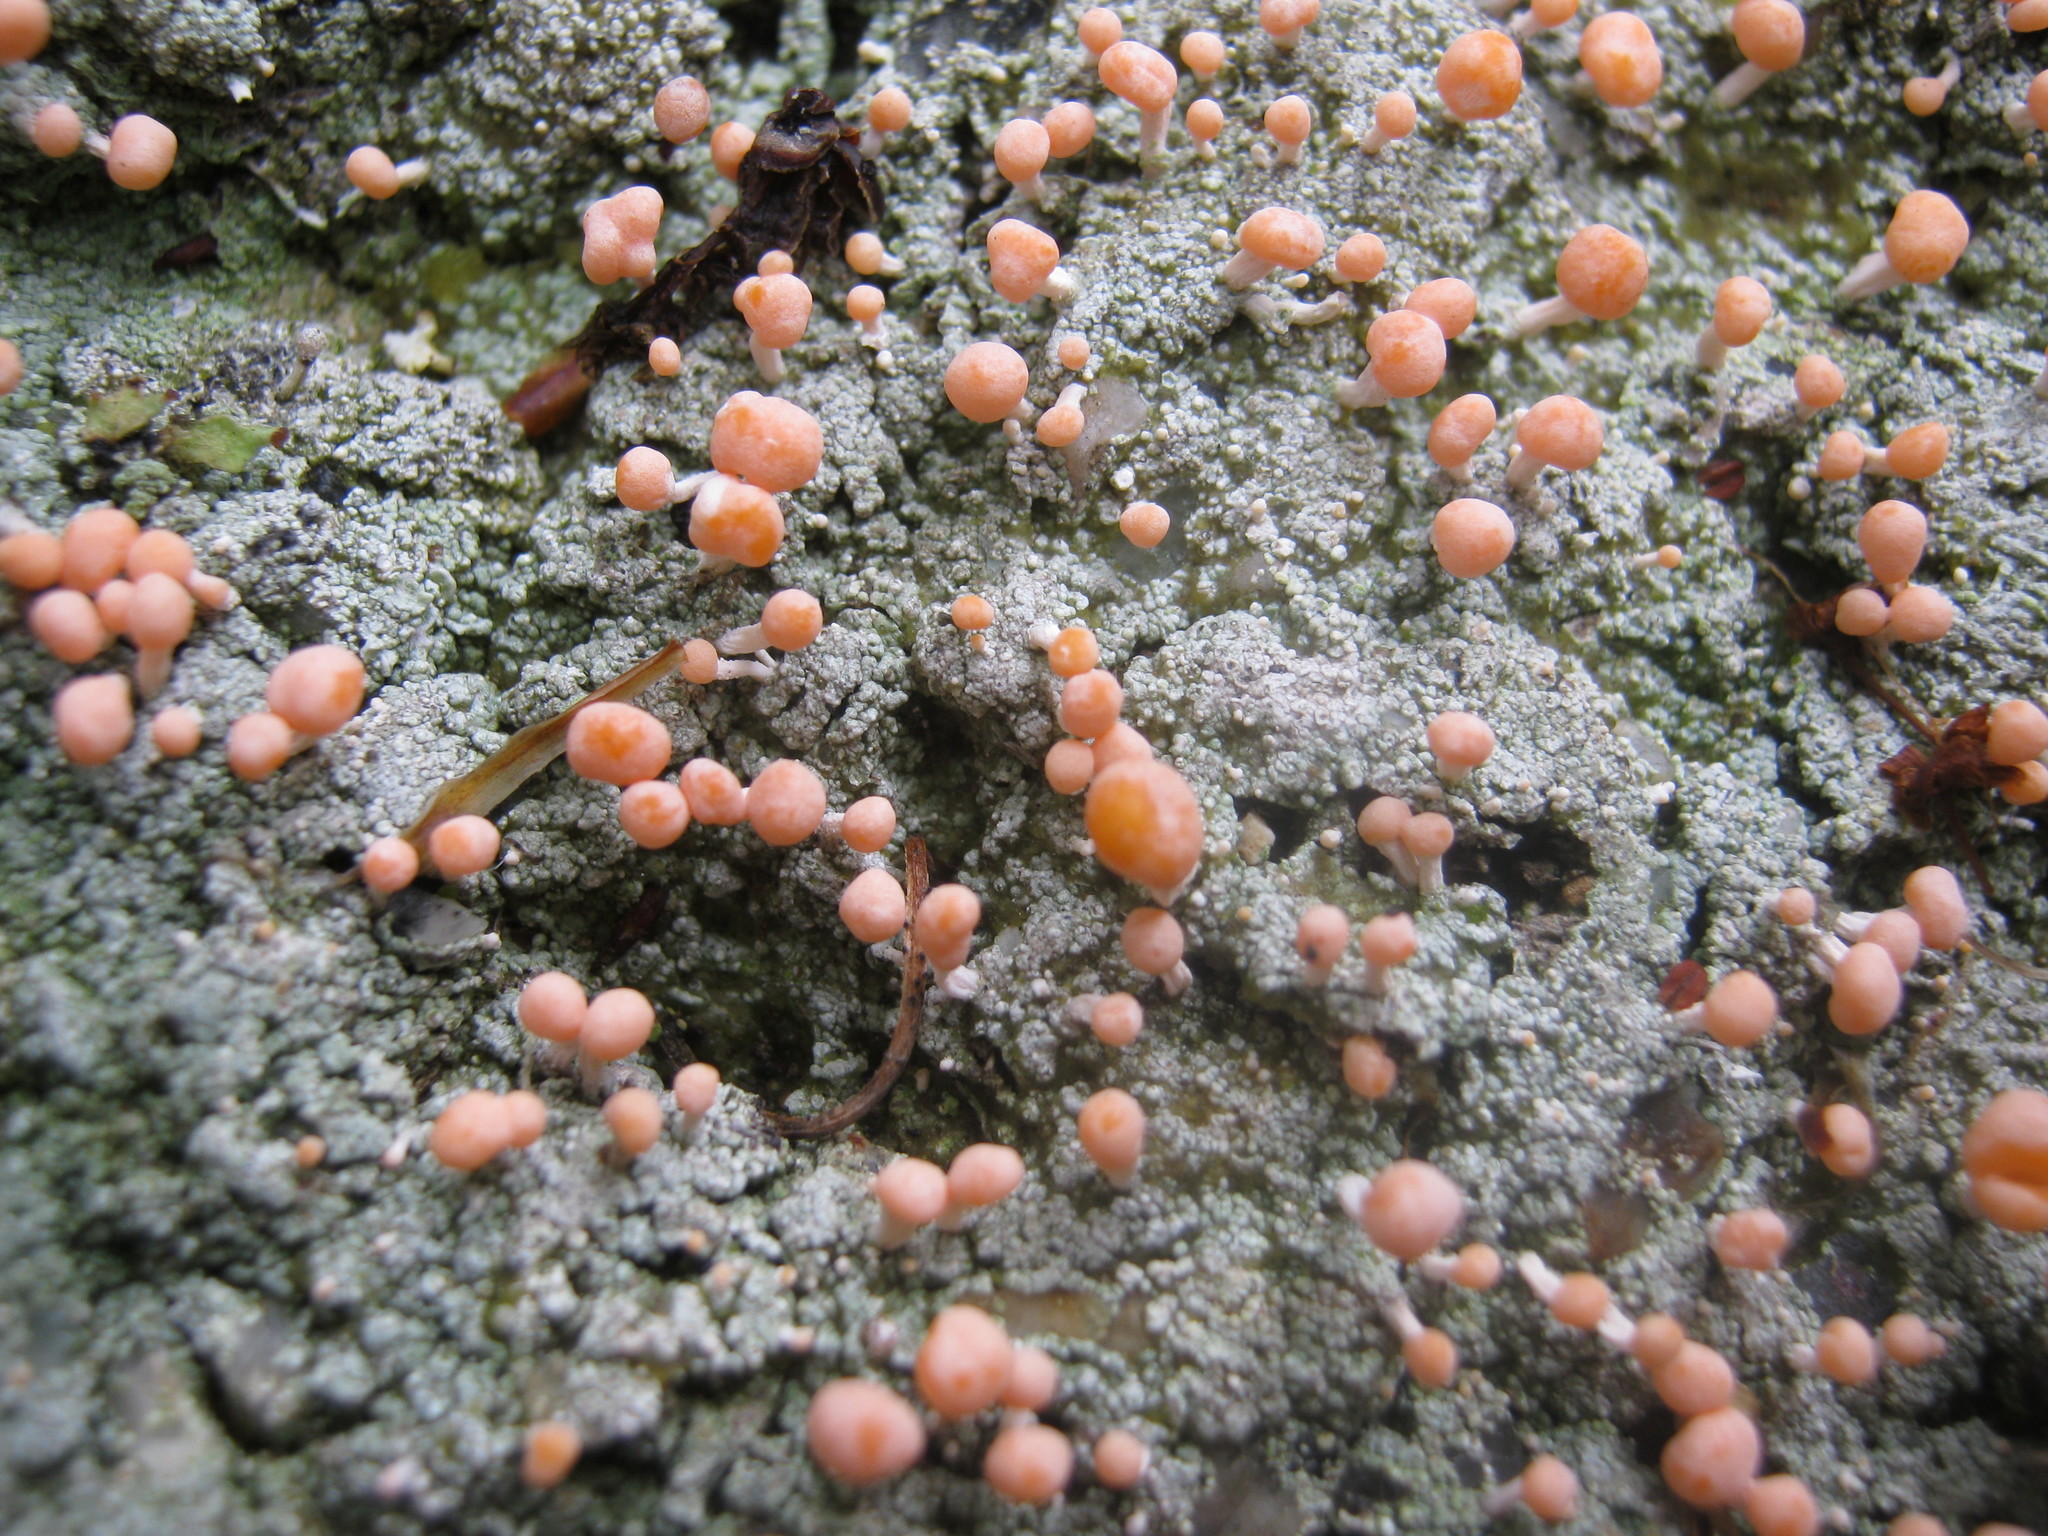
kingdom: Fungi
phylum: Ascomycota
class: Lecanoromycetes
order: Pertusariales
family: Icmadophilaceae
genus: Dibaeis
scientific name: Dibaeis baeomyces
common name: Pink earth lichen
